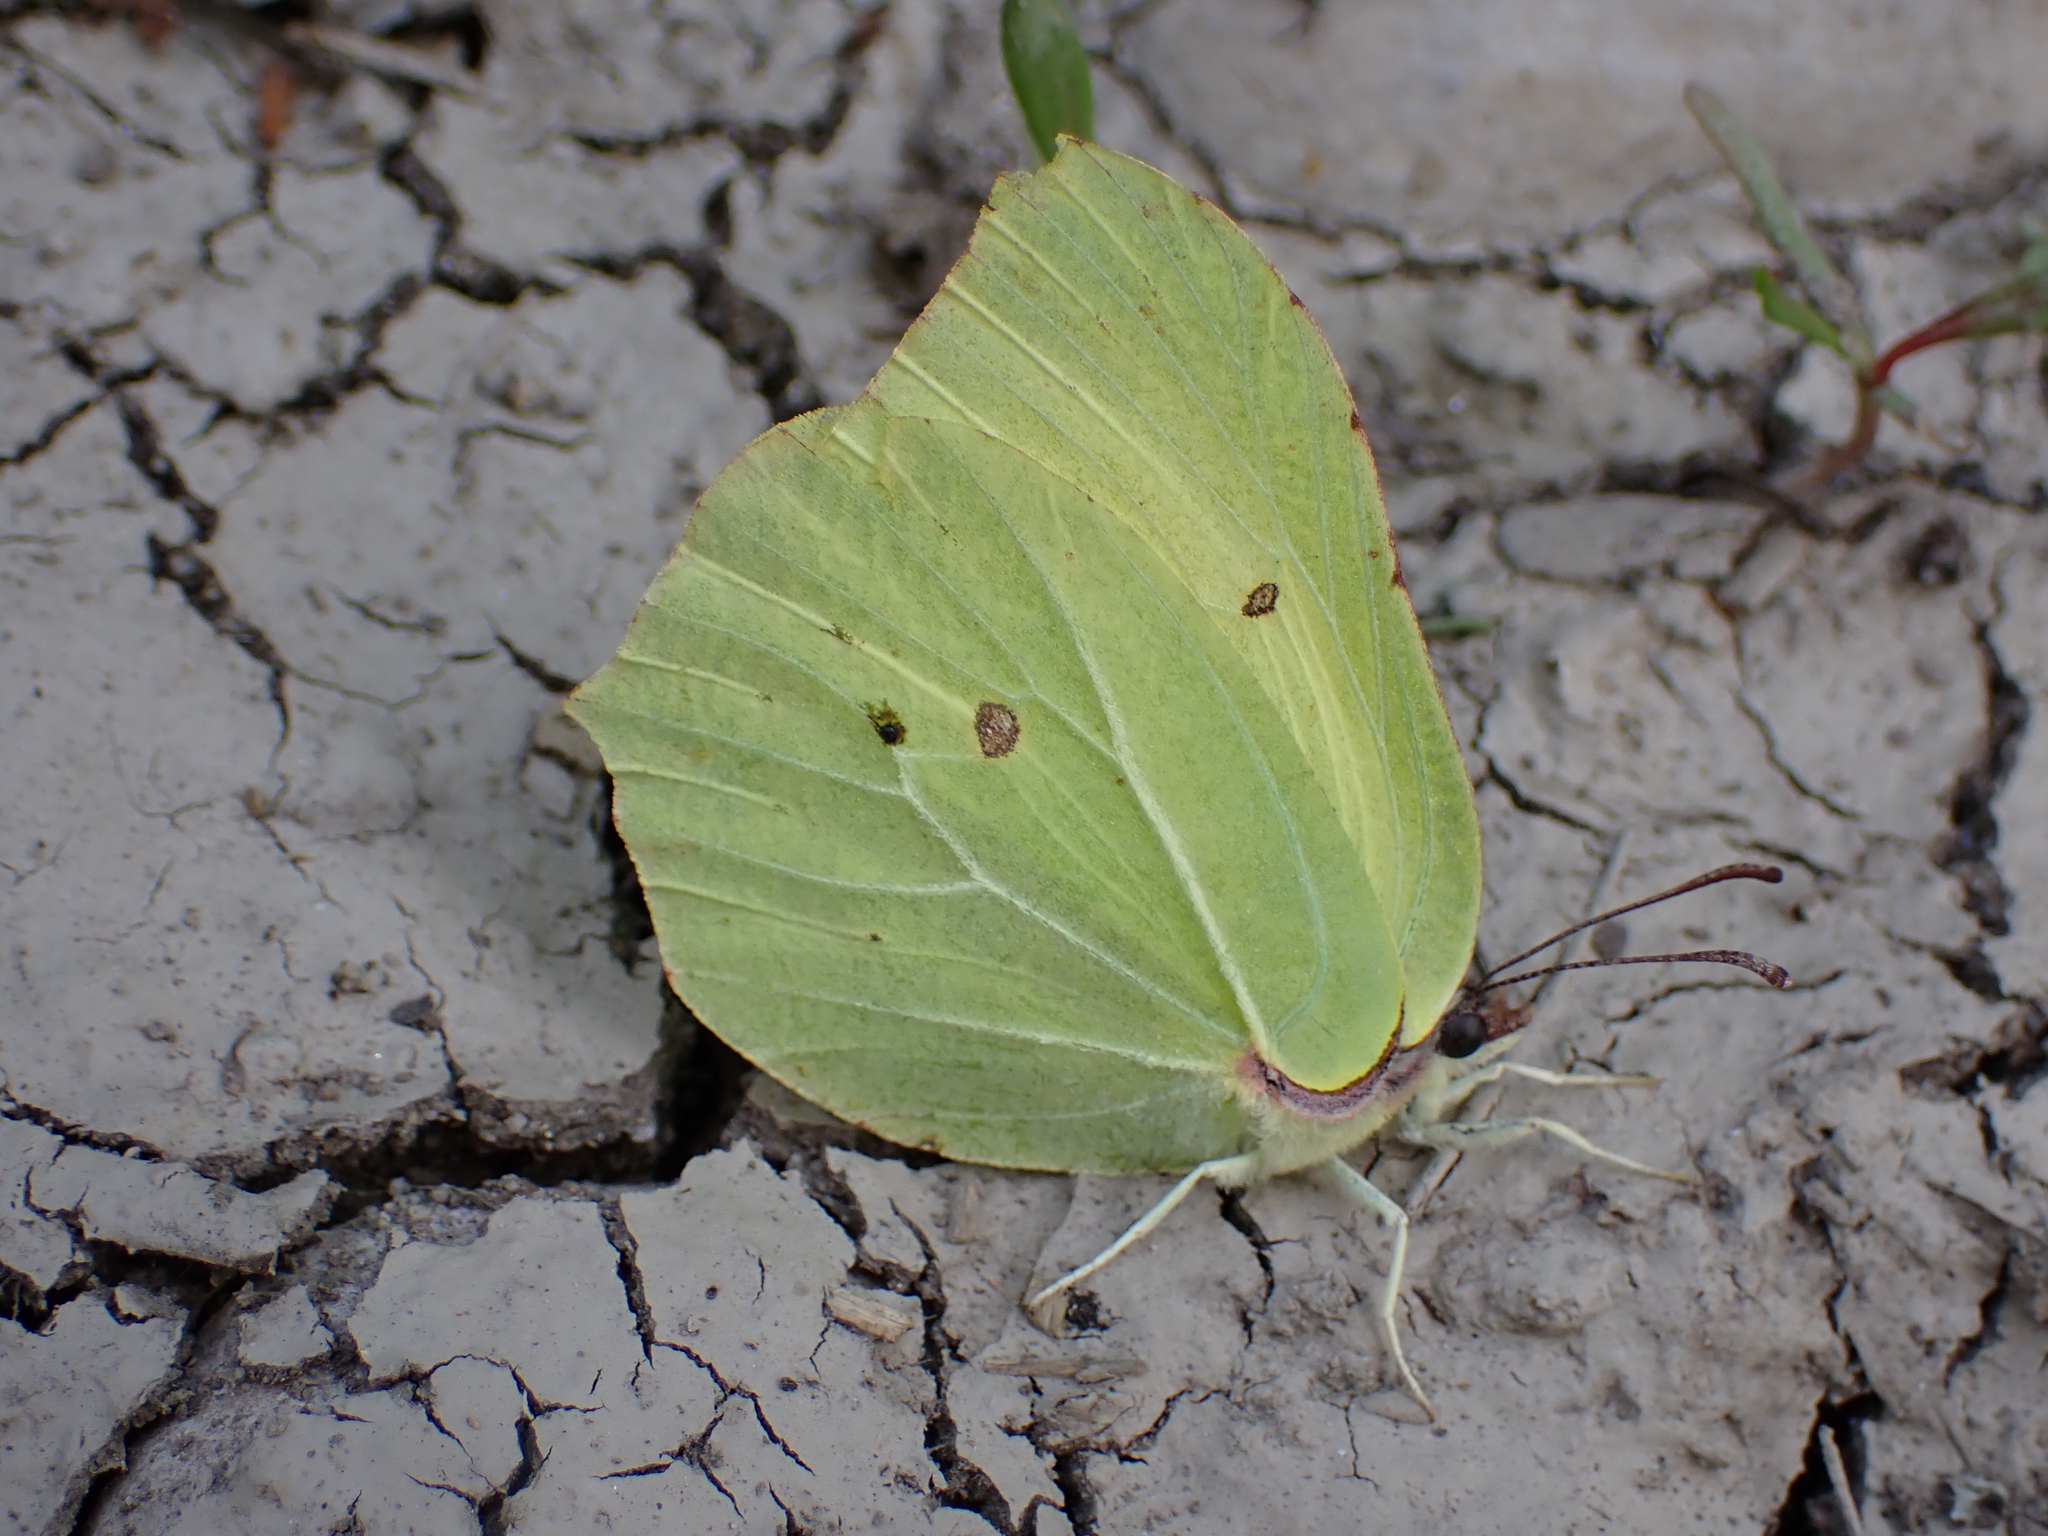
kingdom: Animalia
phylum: Arthropoda
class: Insecta
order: Lepidoptera
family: Pieridae
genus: Gonepteryx
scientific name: Gonepteryx rhamni
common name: Brimstone
